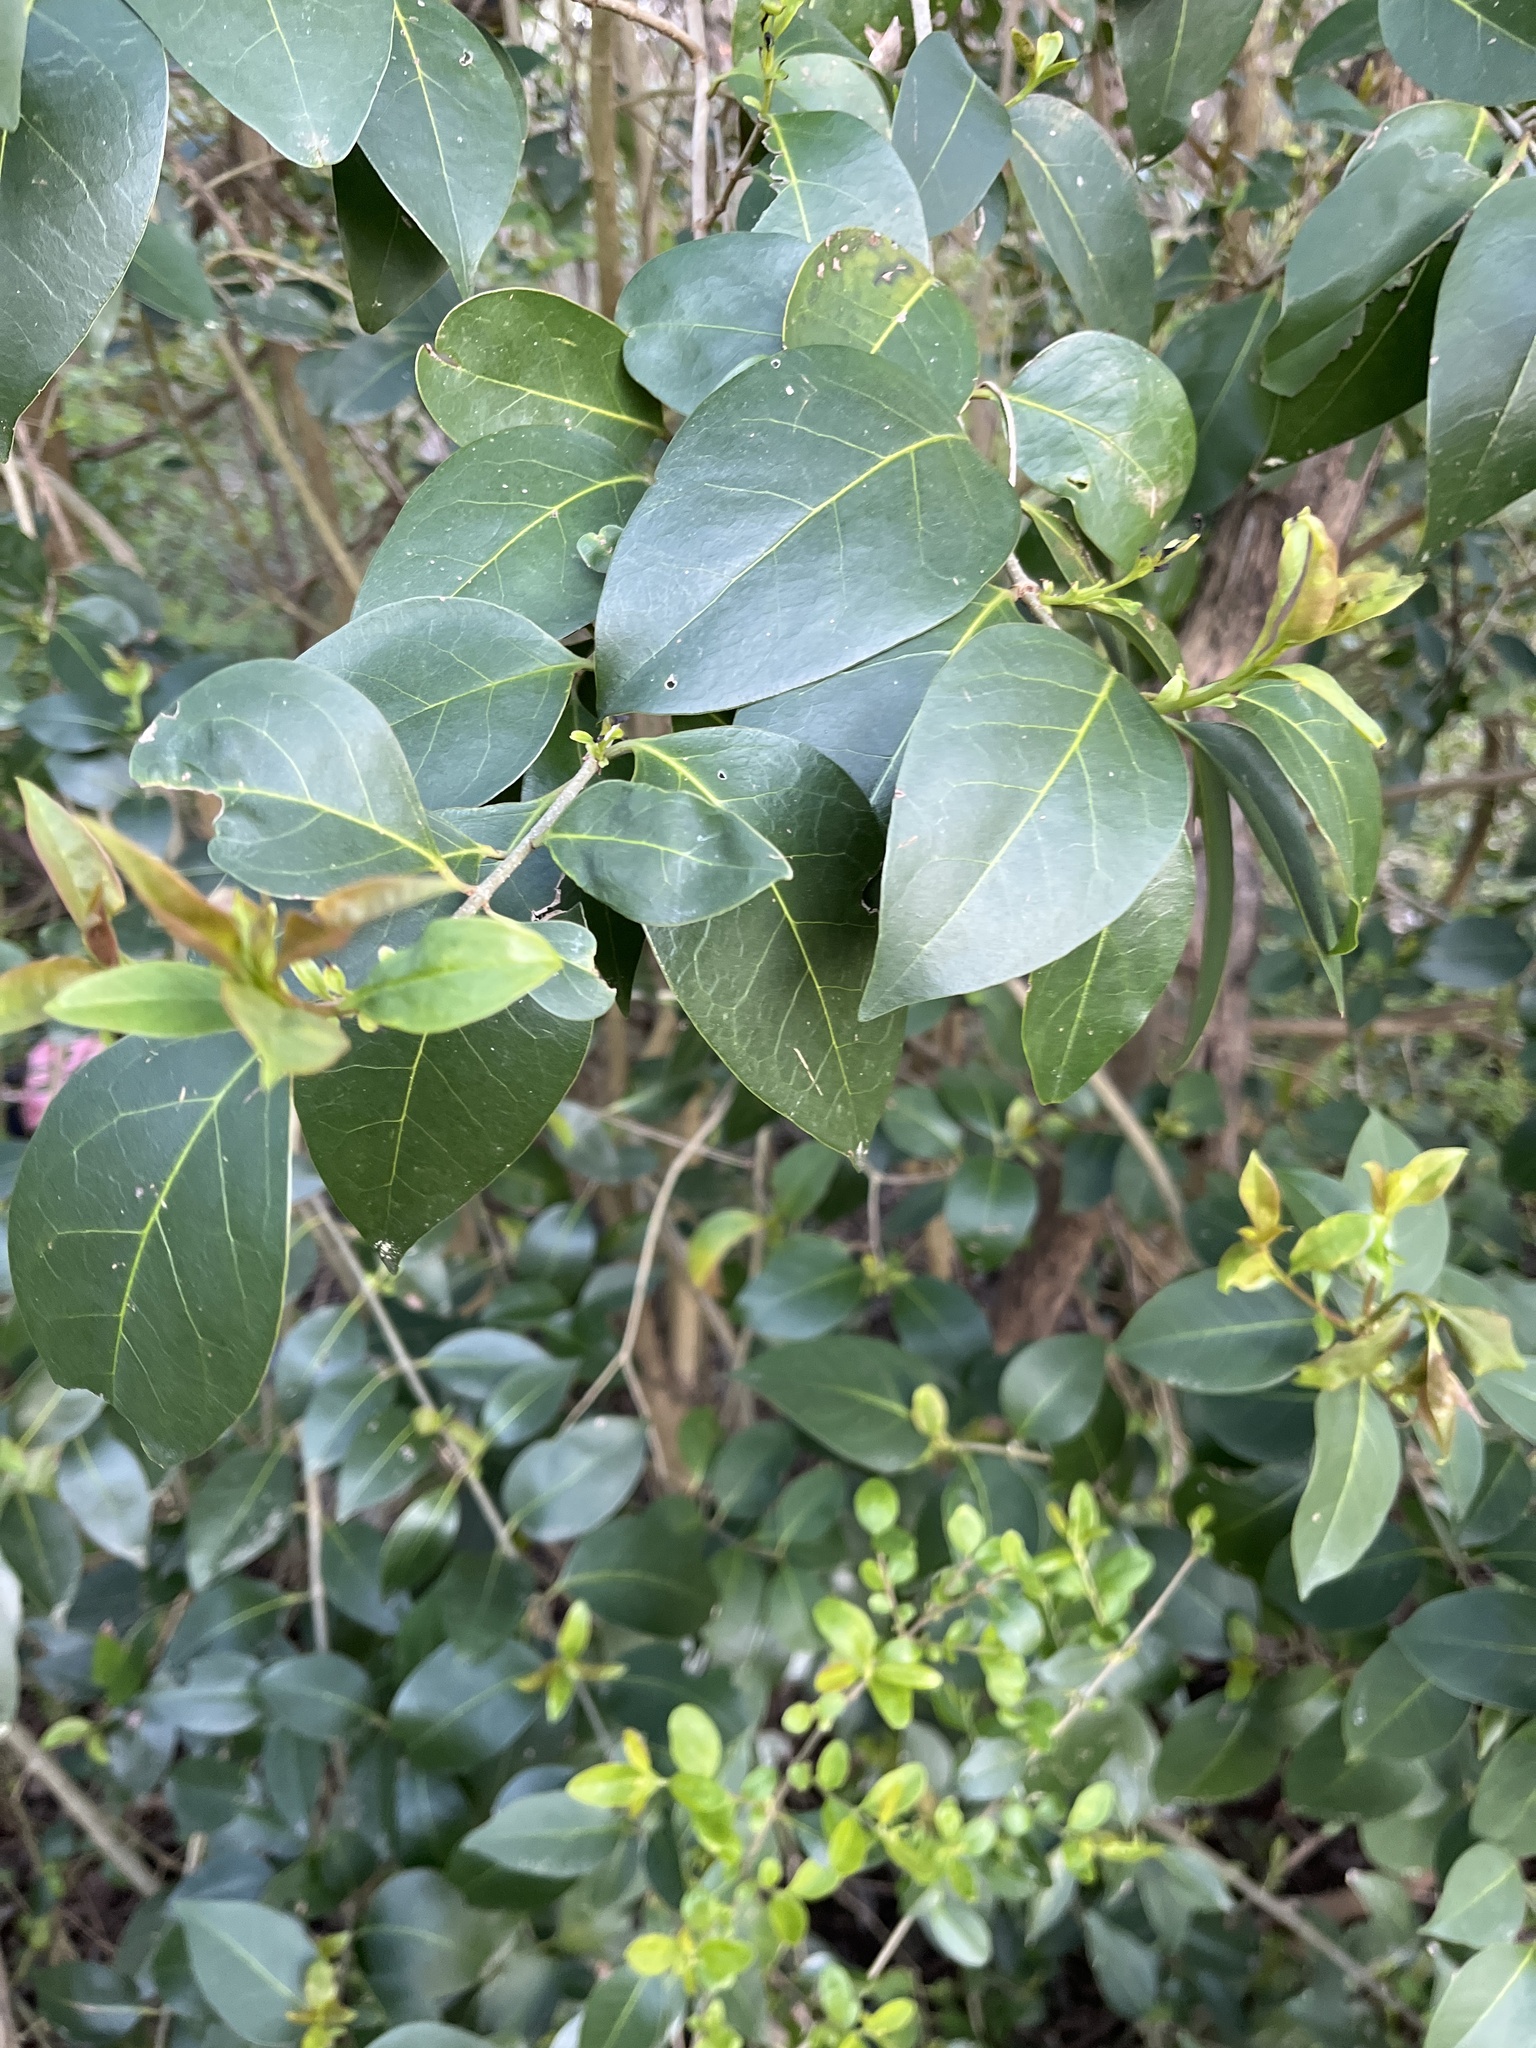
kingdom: Plantae
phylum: Tracheophyta
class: Magnoliopsida
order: Lamiales
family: Oleaceae
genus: Ligustrum
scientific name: Ligustrum lucidum
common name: Glossy privet
